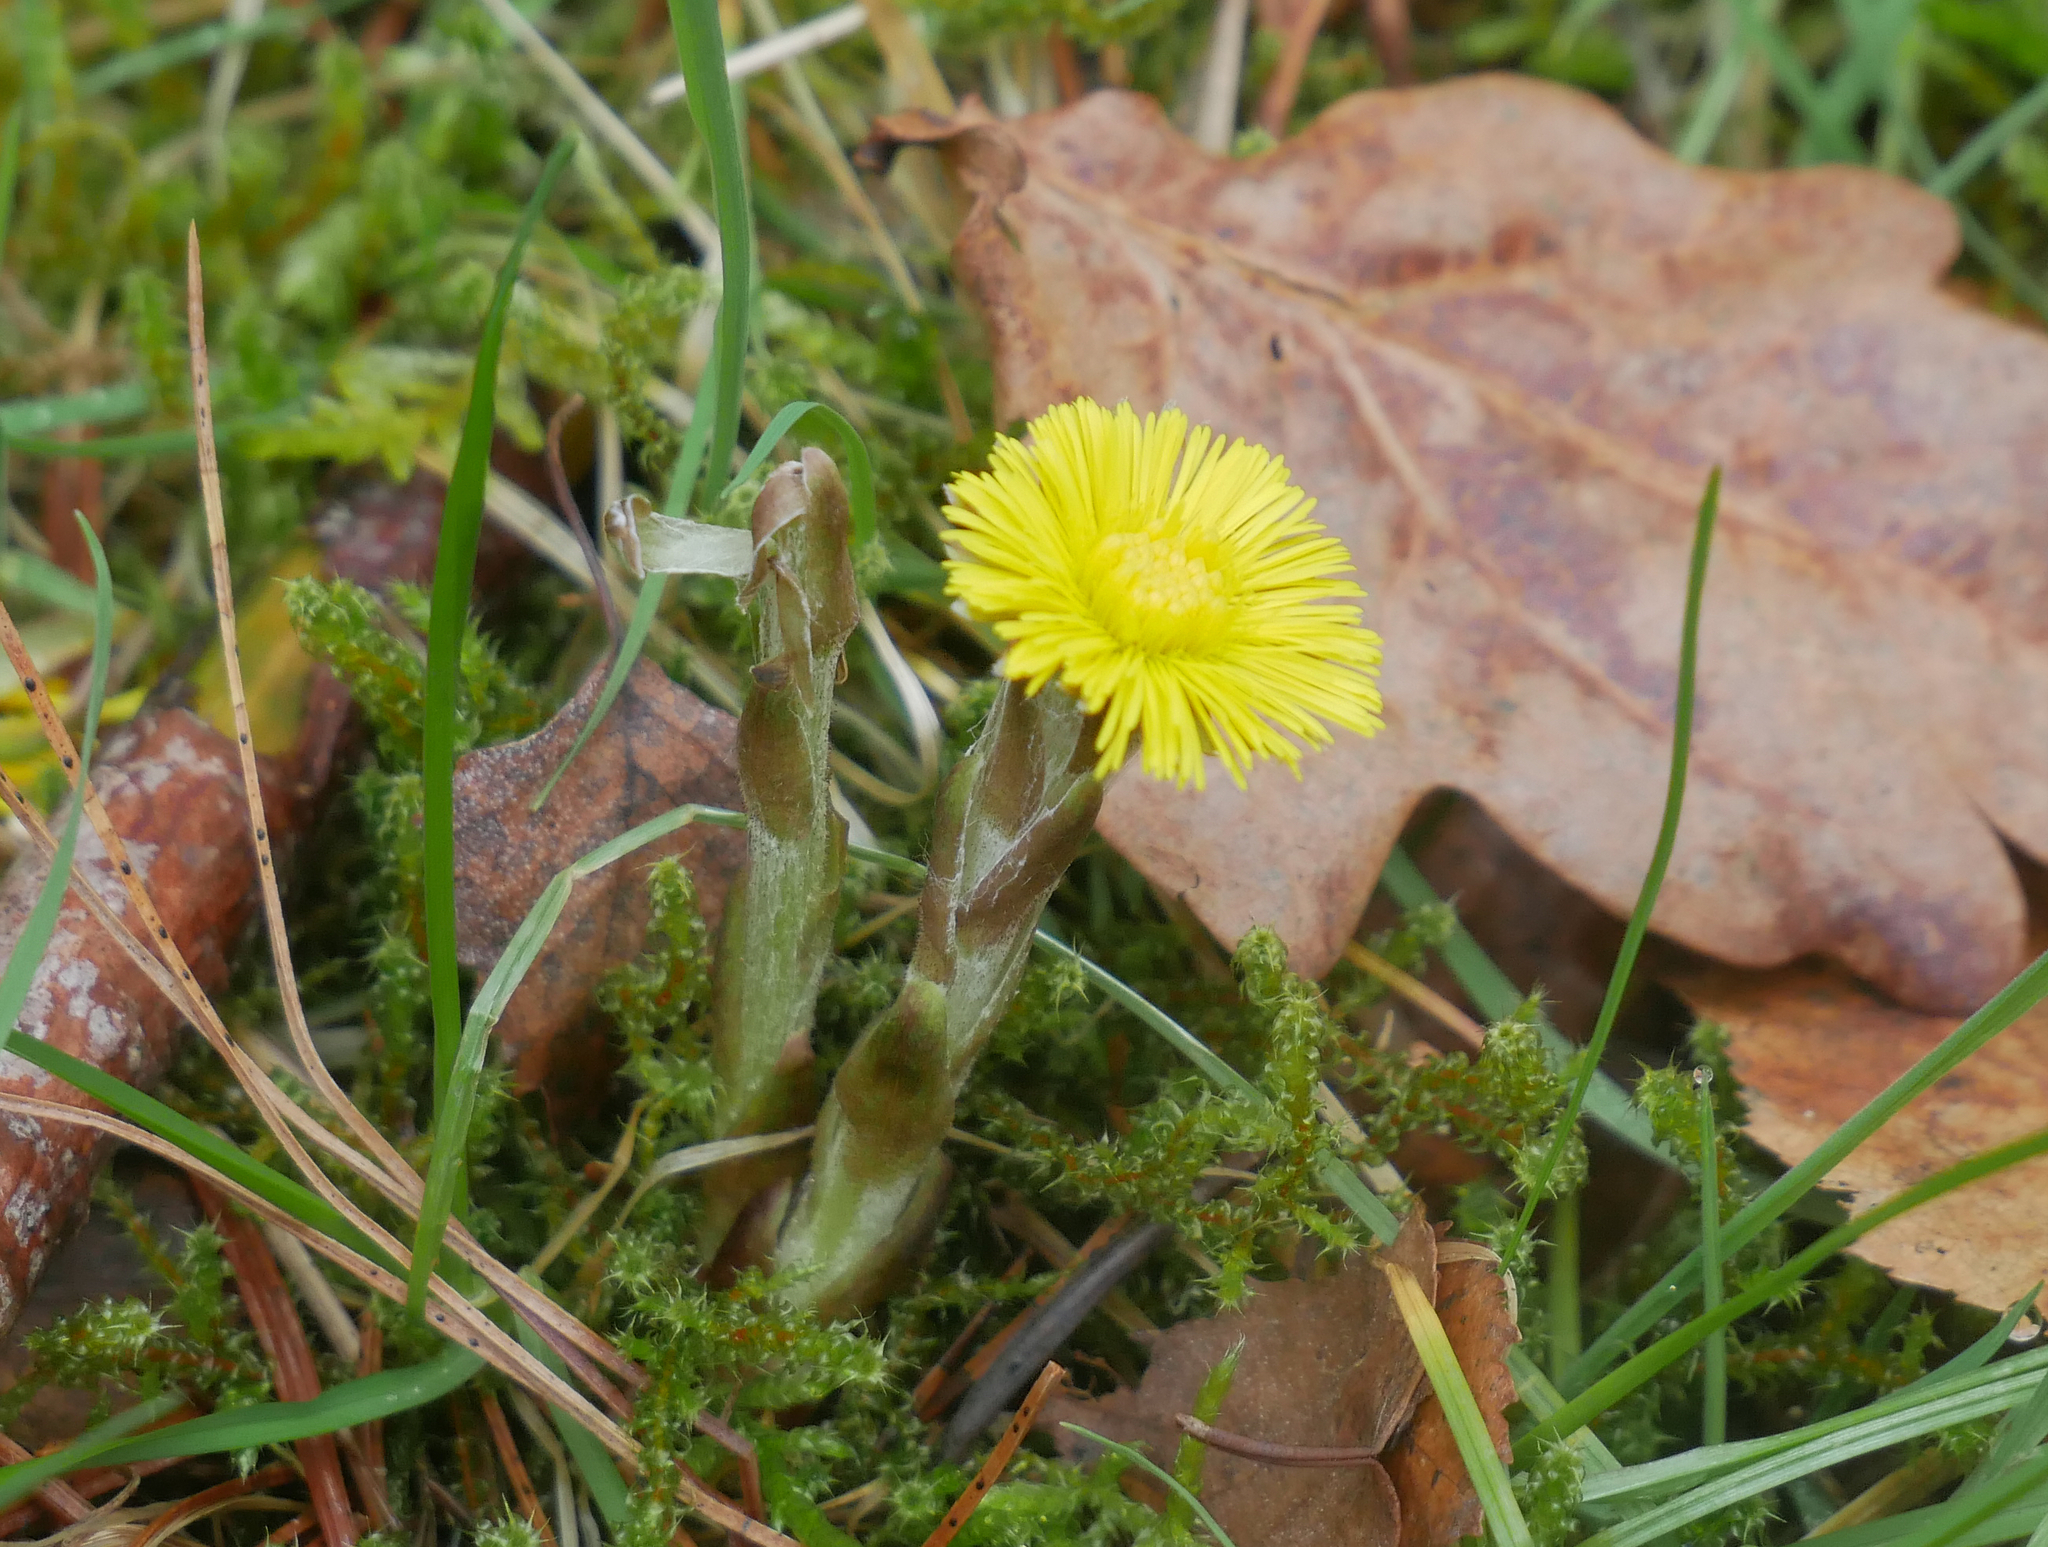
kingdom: Plantae
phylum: Tracheophyta
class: Magnoliopsida
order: Asterales
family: Asteraceae
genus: Tussilago
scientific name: Tussilago farfara
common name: Coltsfoot
